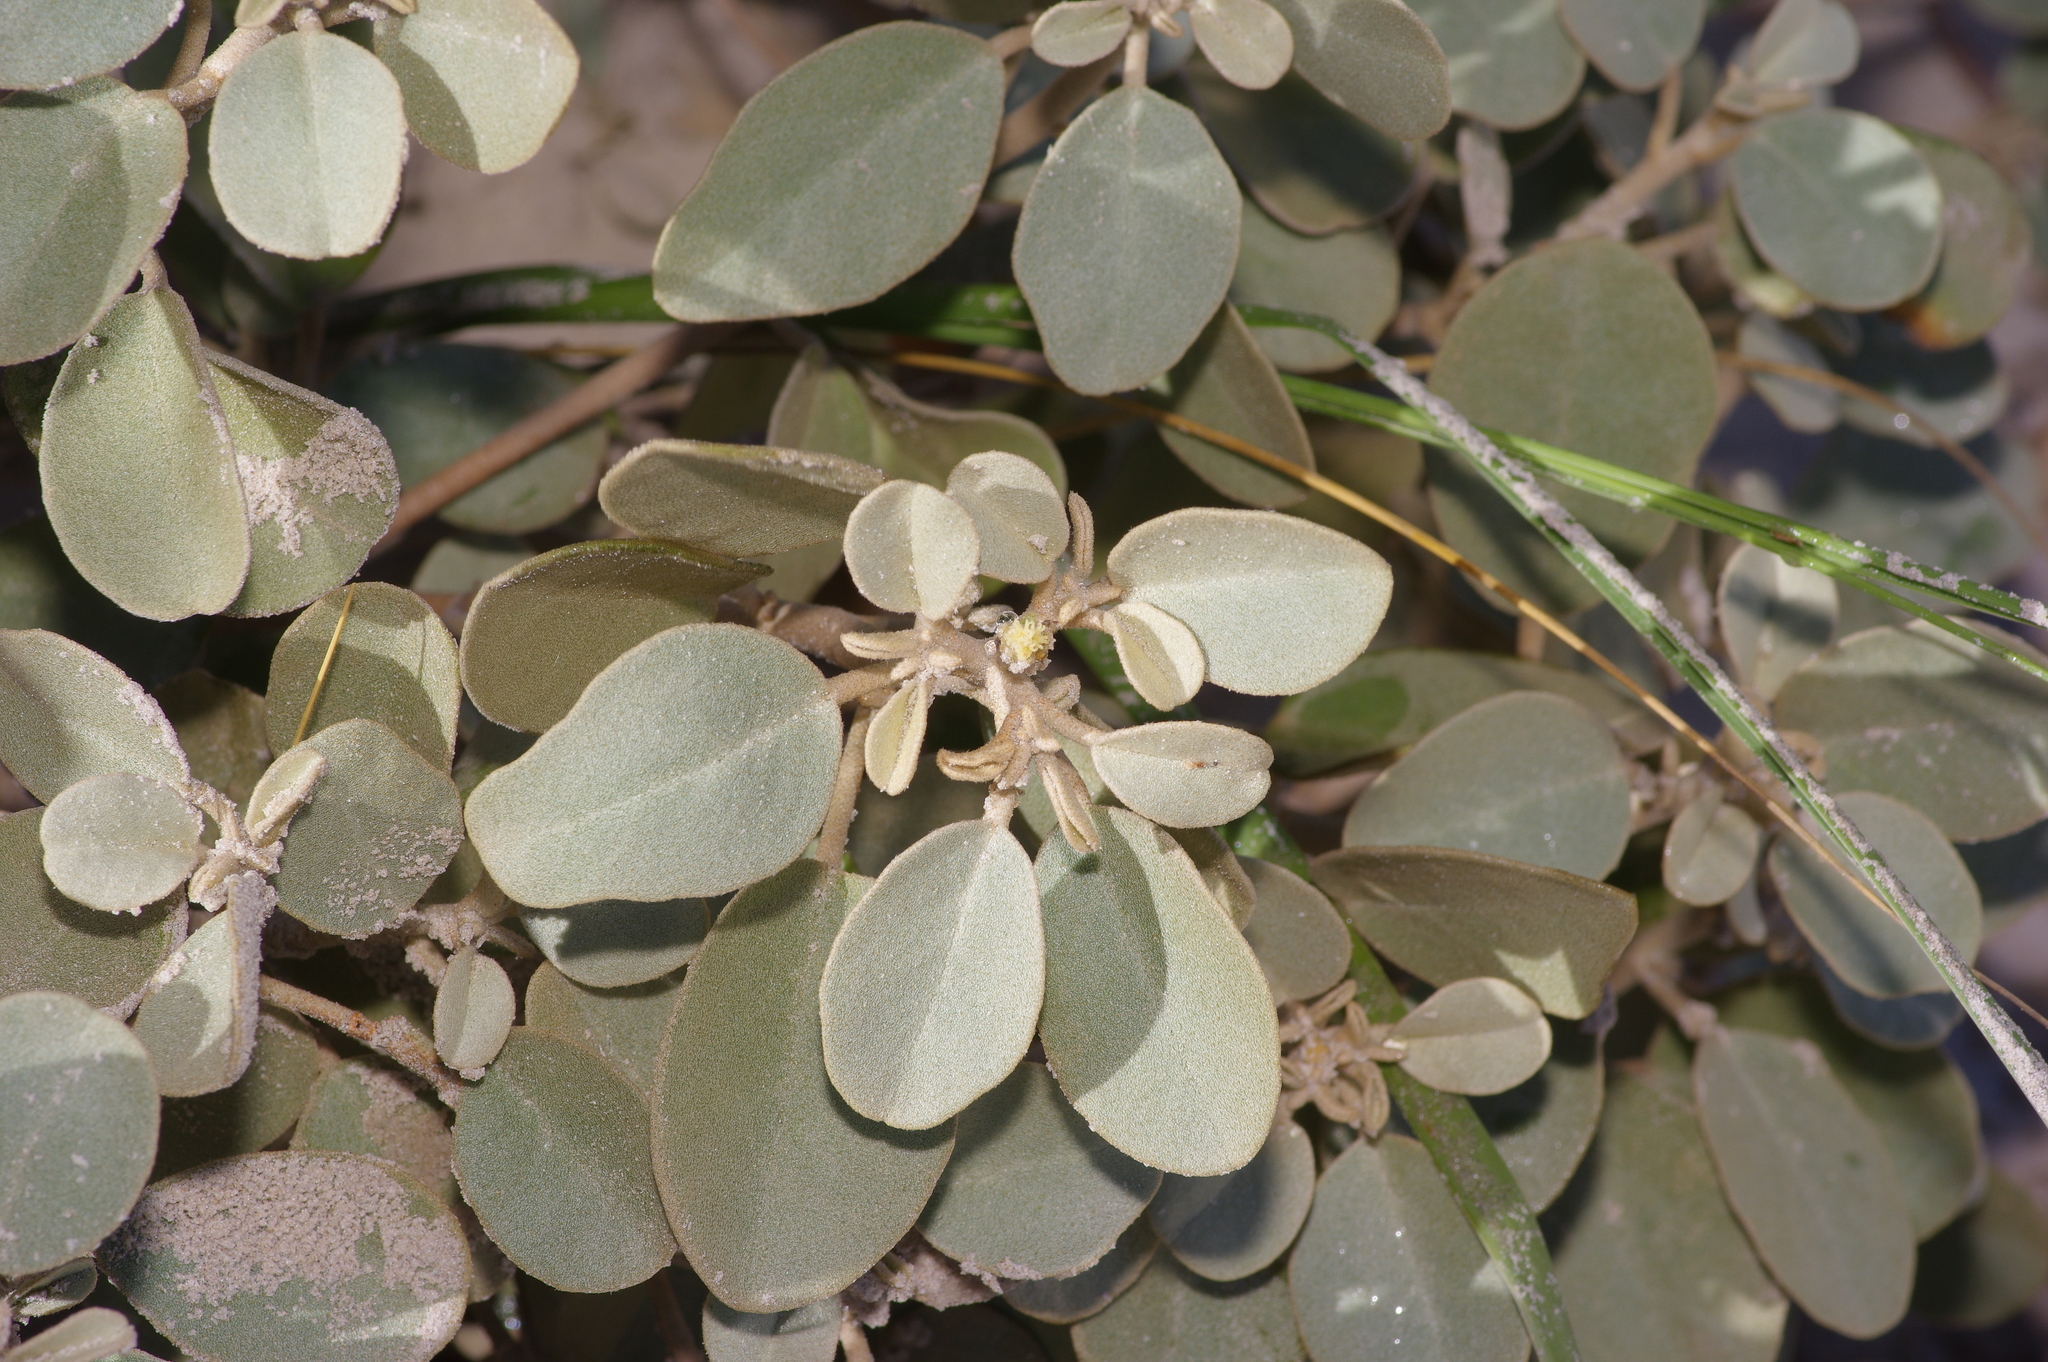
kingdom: Plantae
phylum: Tracheophyta
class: Magnoliopsida
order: Malpighiales
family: Euphorbiaceae
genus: Croton
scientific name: Croton punctatus
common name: Beach-tea
